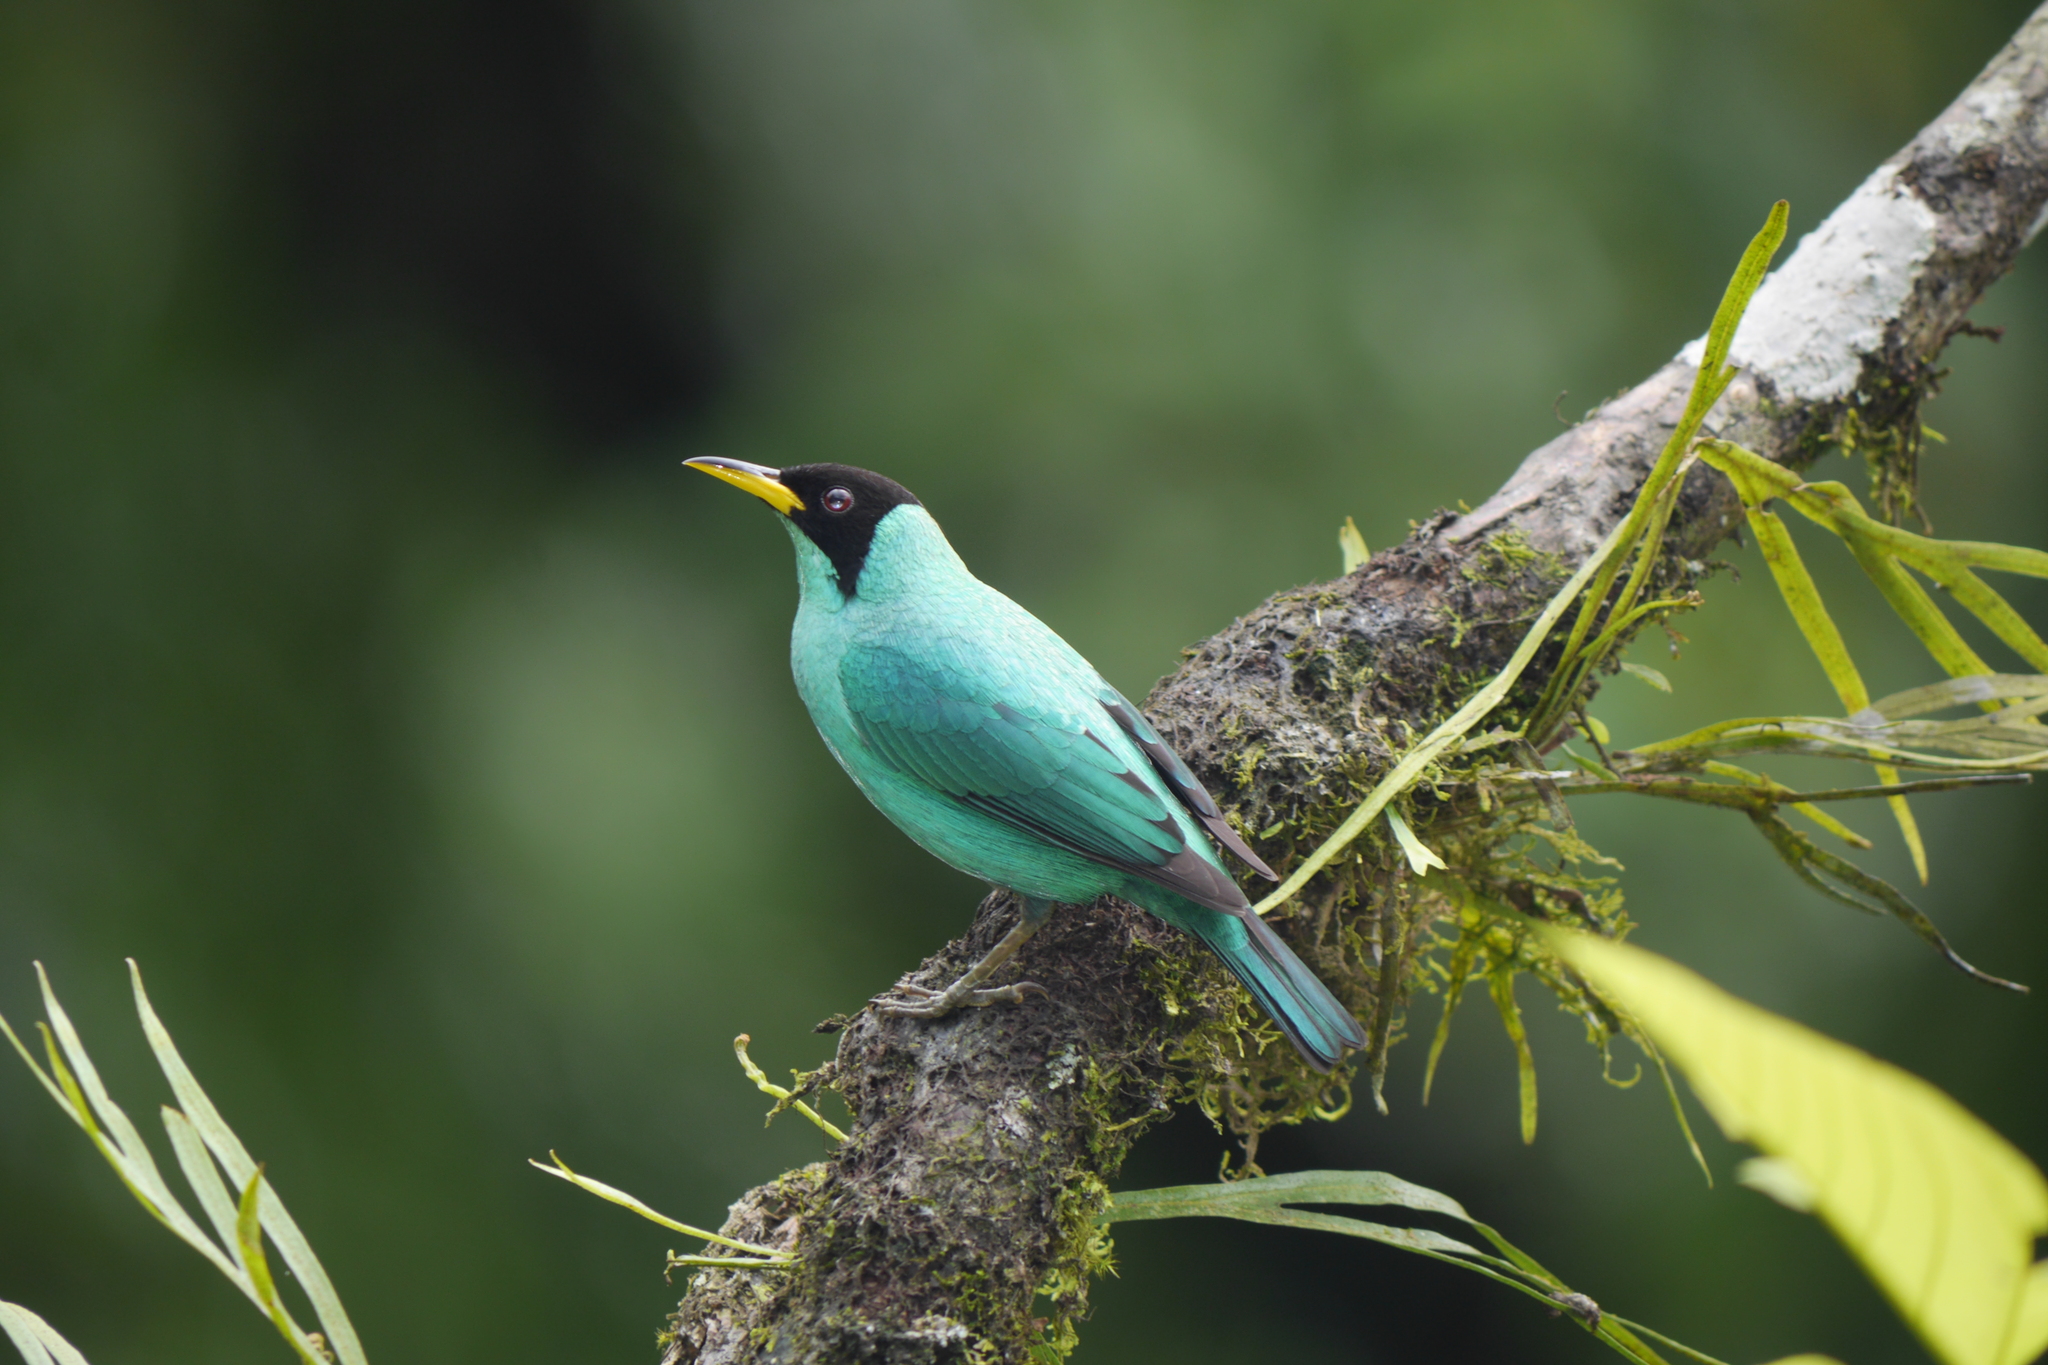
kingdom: Animalia
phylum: Chordata
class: Aves
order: Passeriformes
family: Thraupidae
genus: Chlorophanes
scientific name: Chlorophanes spiza
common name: Green honeycreeper
